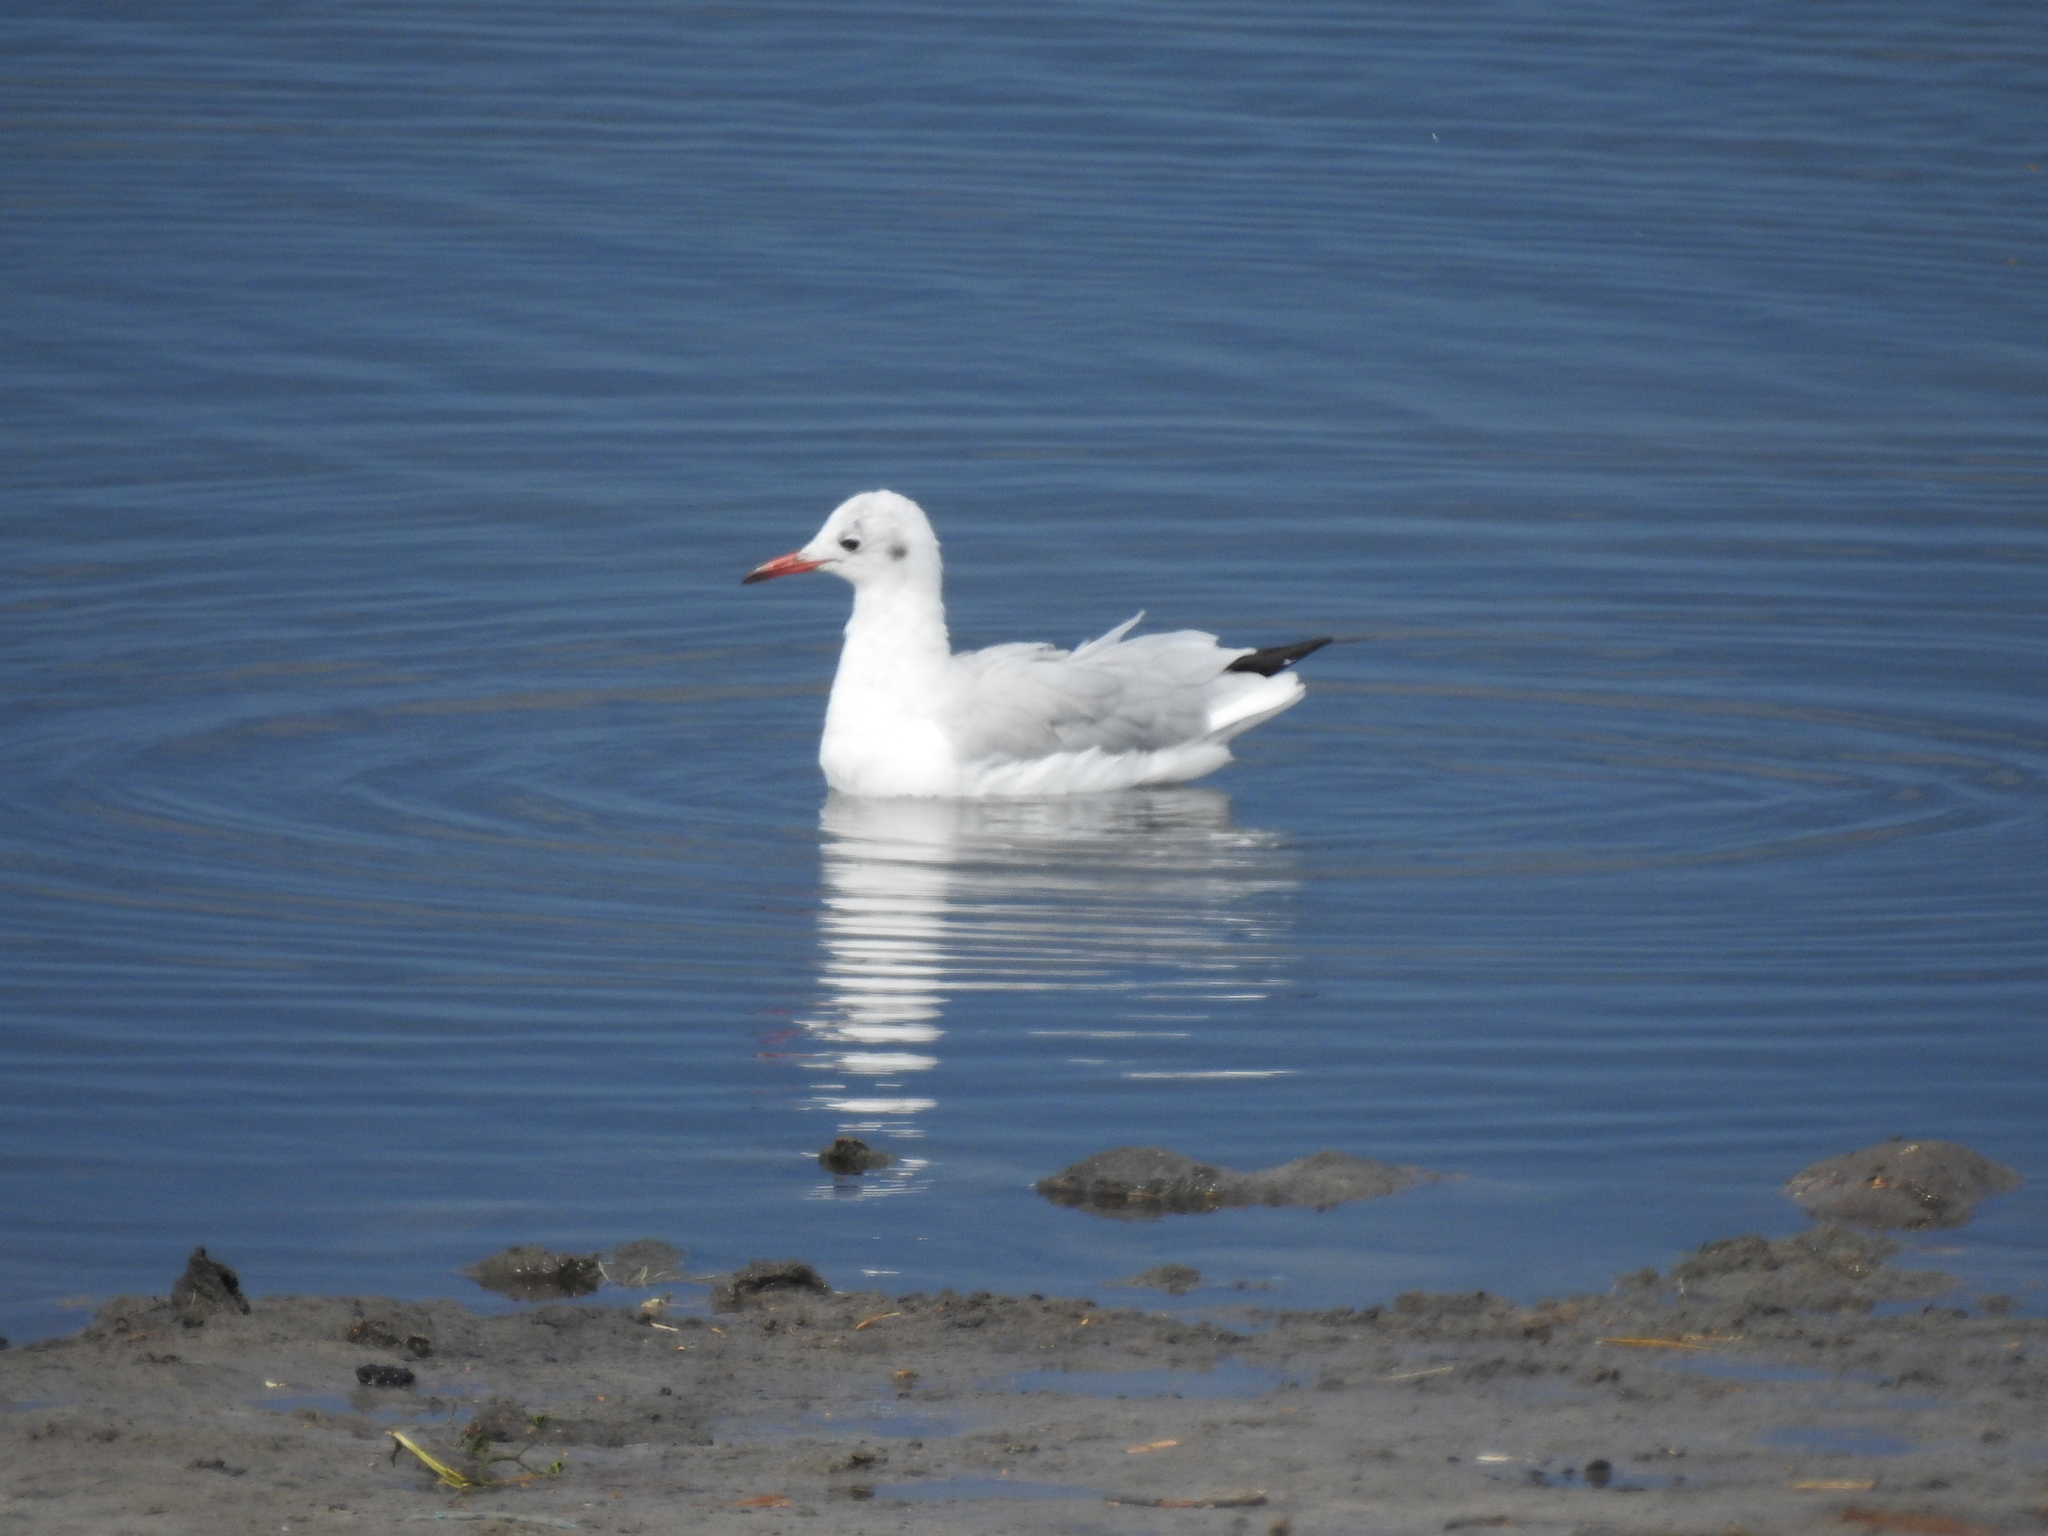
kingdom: Animalia
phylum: Chordata
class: Aves
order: Charadriiformes
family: Laridae
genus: Chroicocephalus
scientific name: Chroicocephalus ridibundus
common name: Black-headed gull
